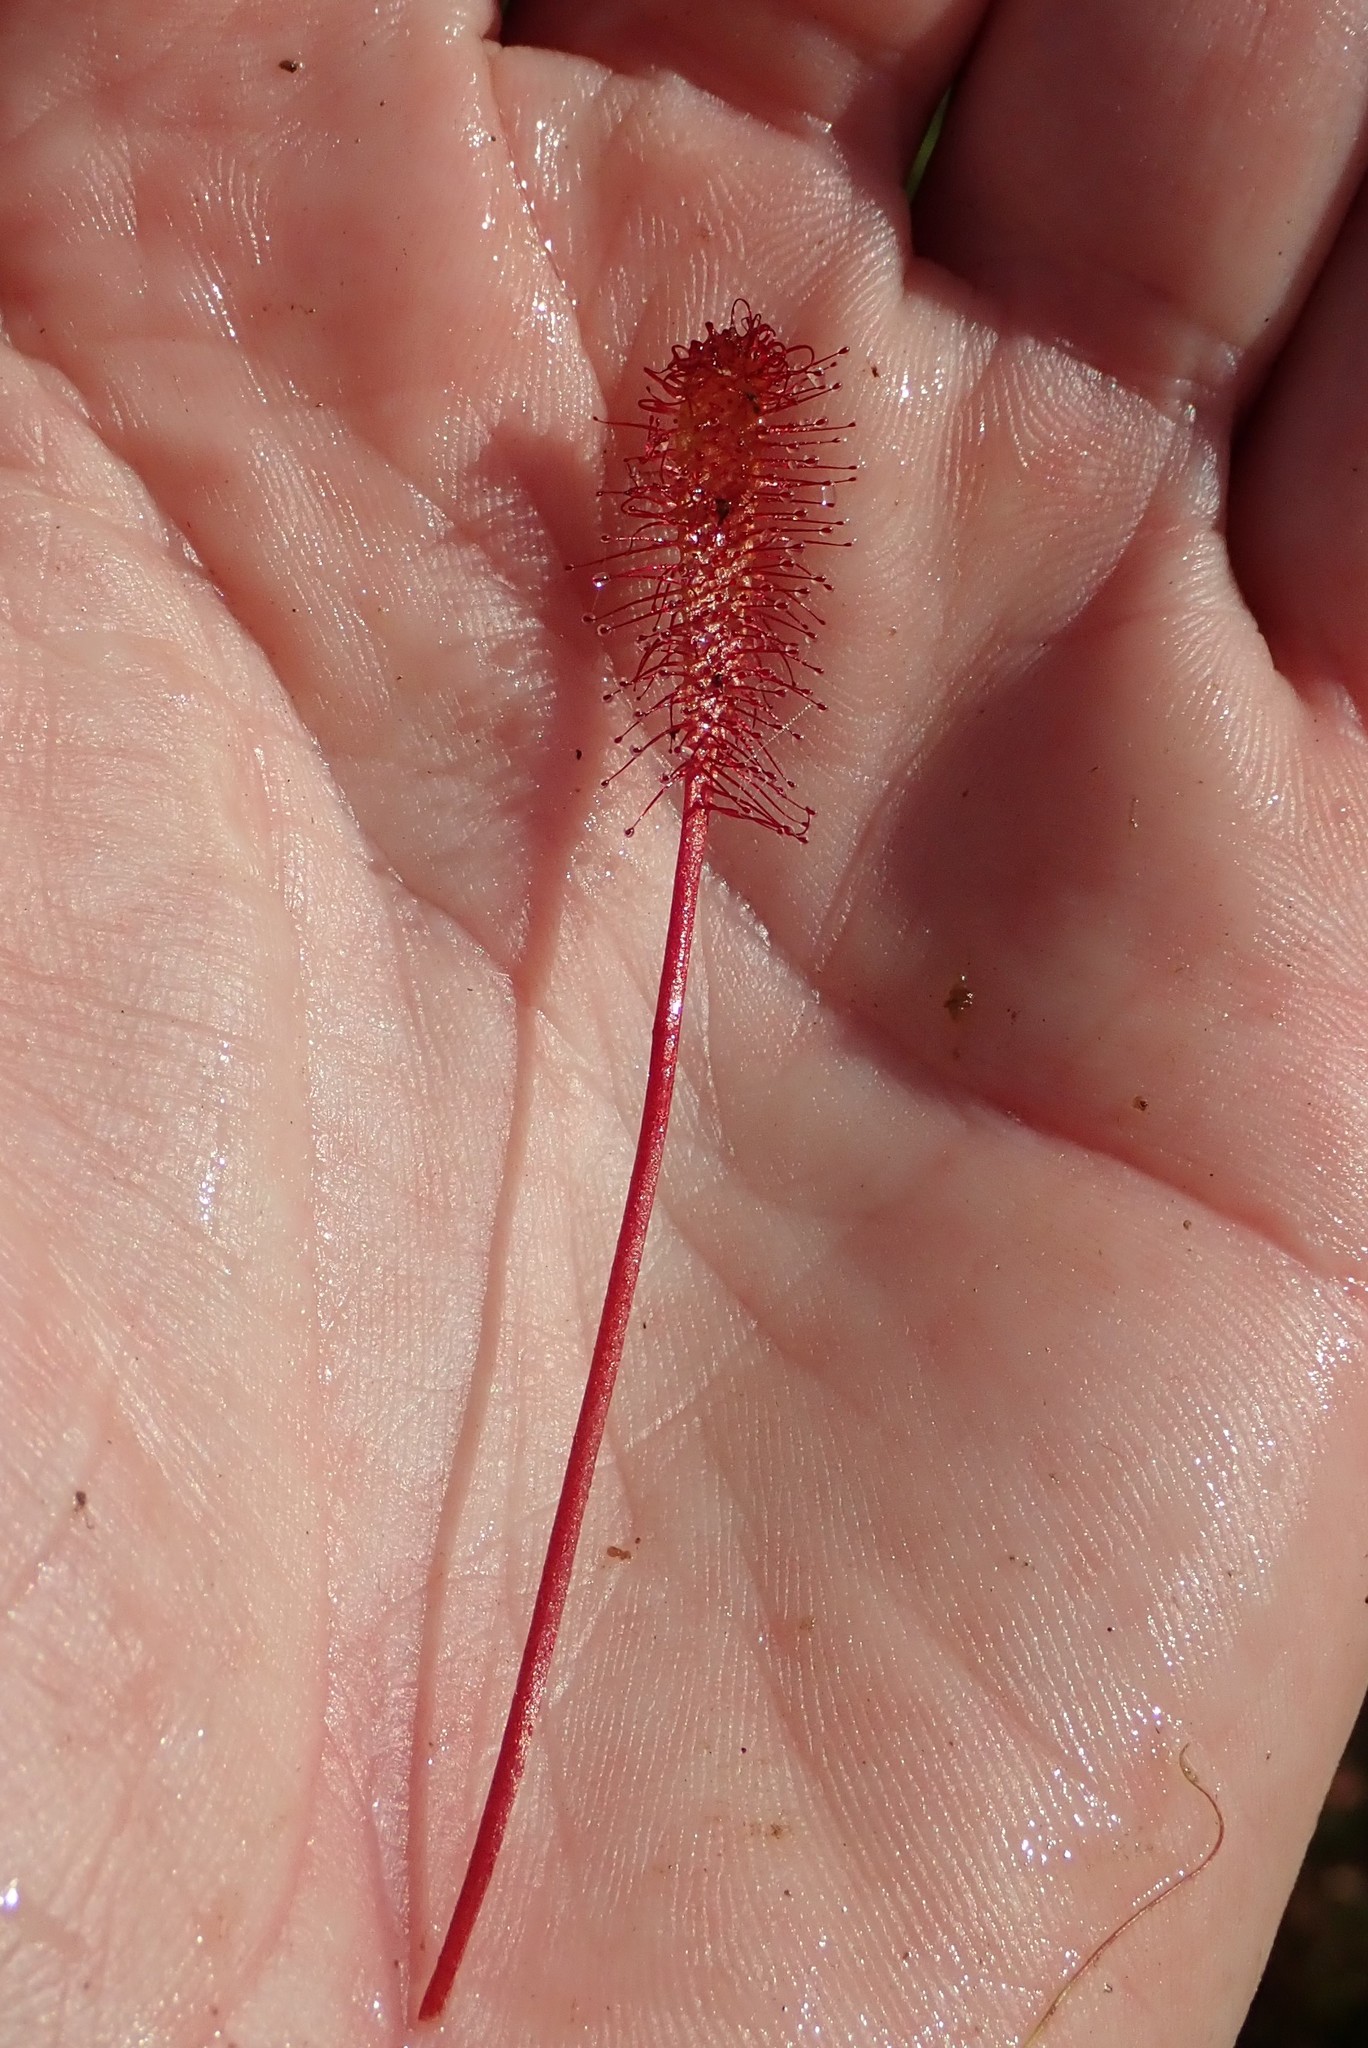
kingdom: Plantae
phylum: Tracheophyta
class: Magnoliopsida
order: Caryophyllales
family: Droseraceae
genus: Drosera
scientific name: Drosera anglica
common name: Great sundew
